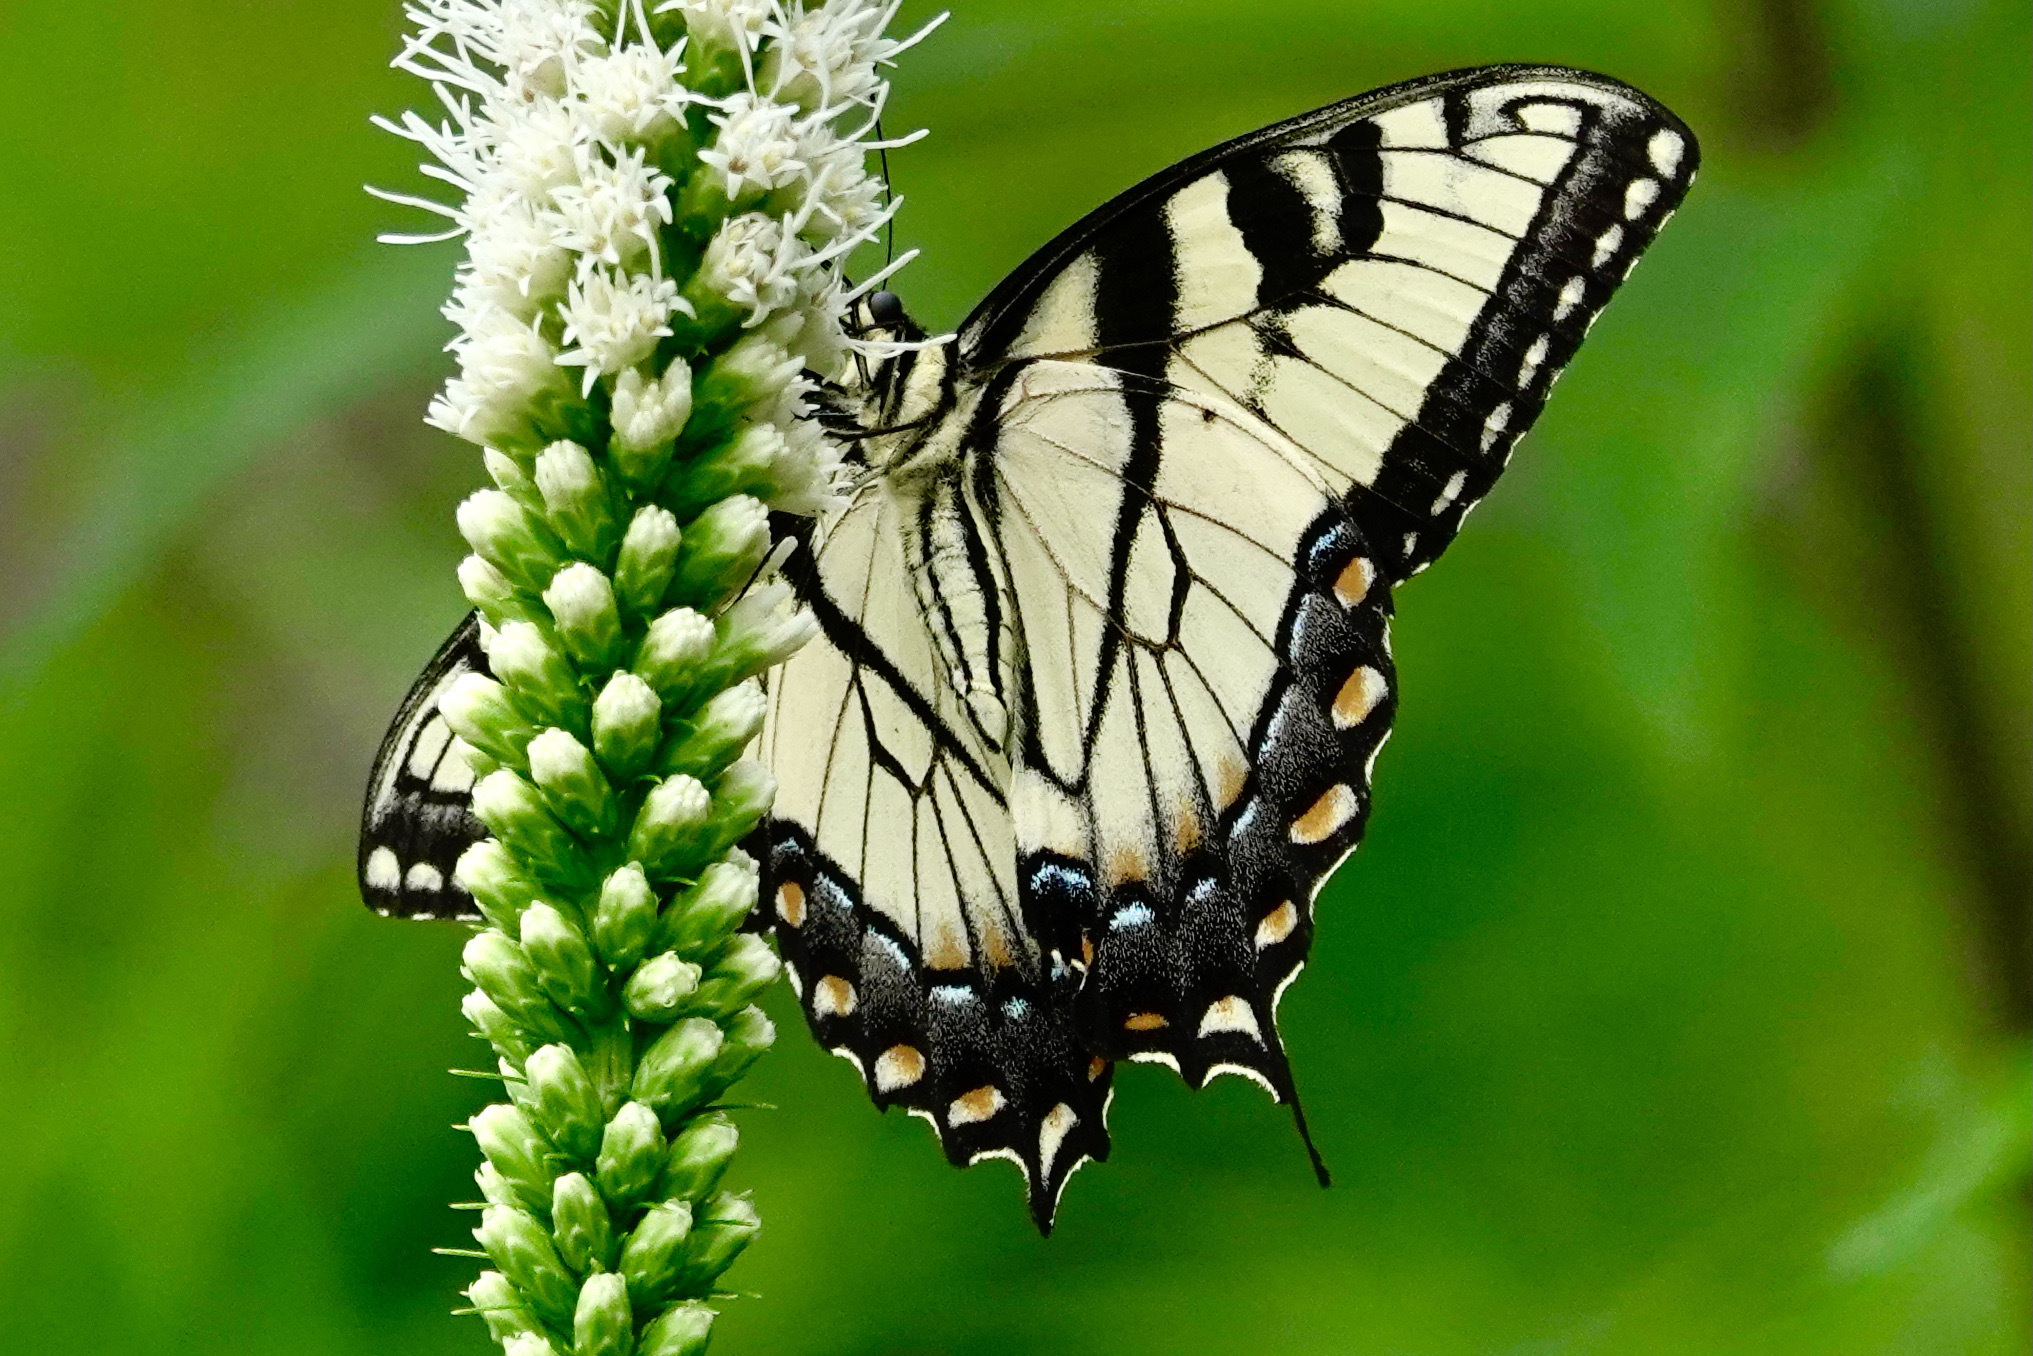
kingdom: Animalia
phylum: Arthropoda
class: Insecta
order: Lepidoptera
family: Papilionidae
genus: Papilio
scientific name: Papilio glaucus
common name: Tiger swallowtail
